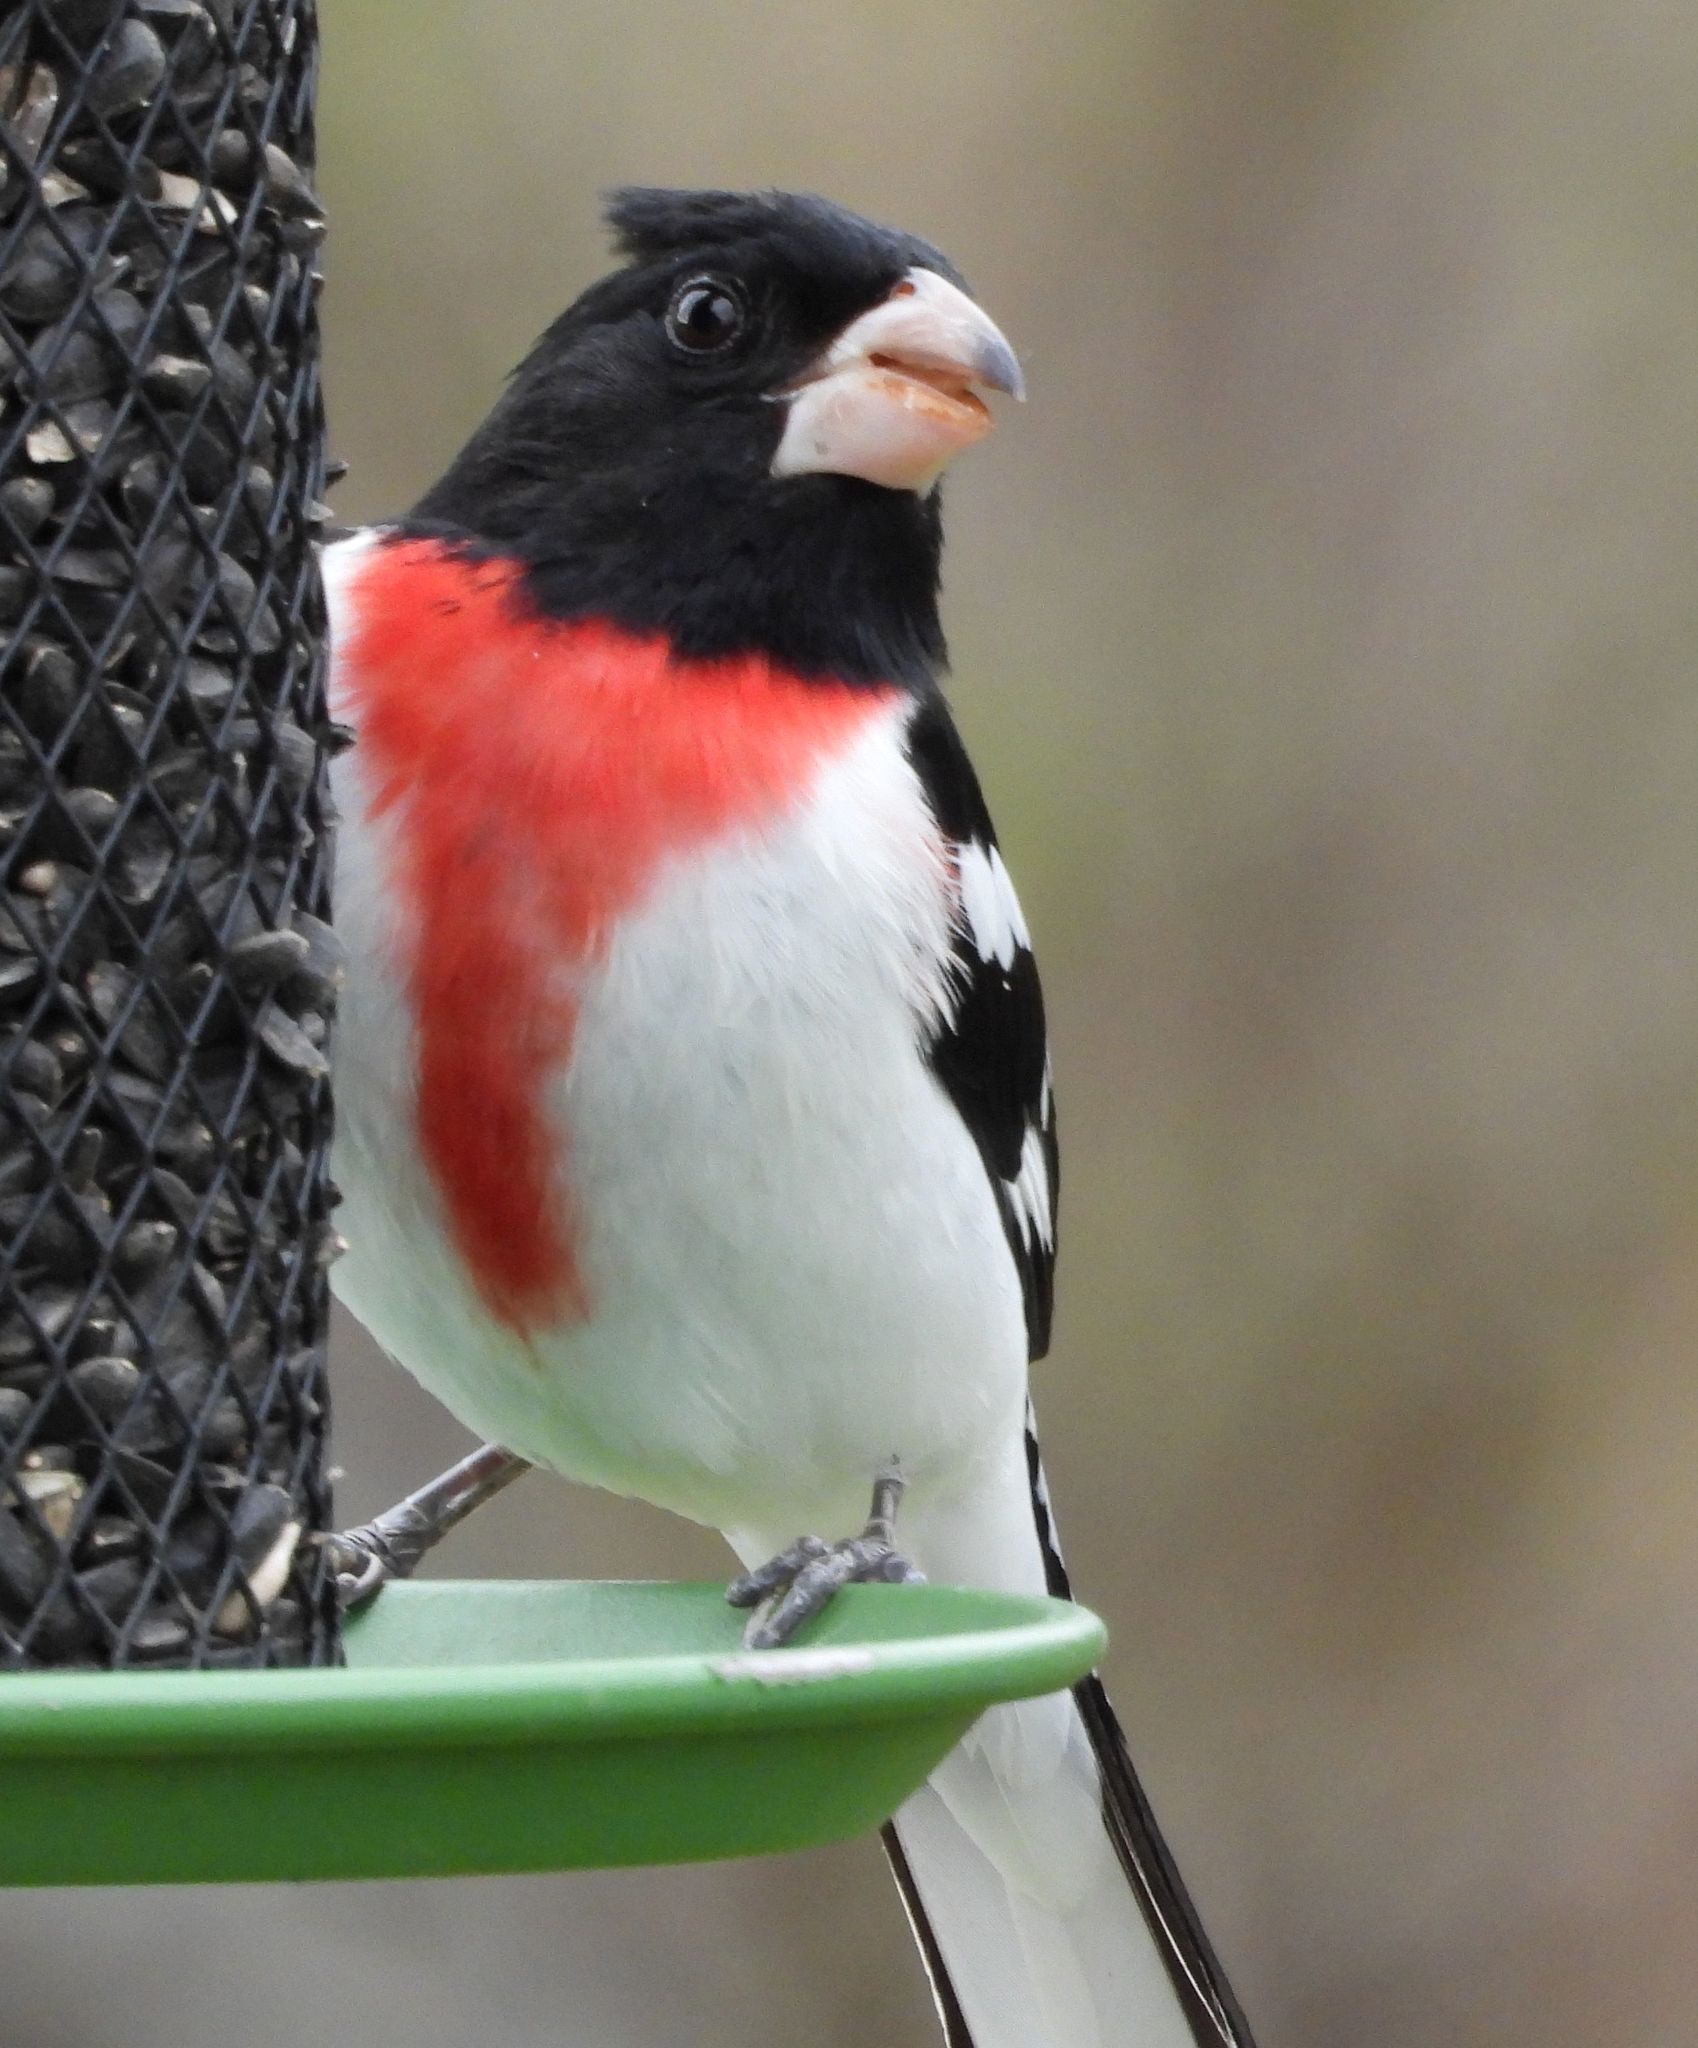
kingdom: Animalia
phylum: Chordata
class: Aves
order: Passeriformes
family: Cardinalidae
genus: Pheucticus
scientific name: Pheucticus ludovicianus
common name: Rose-breasted grosbeak
